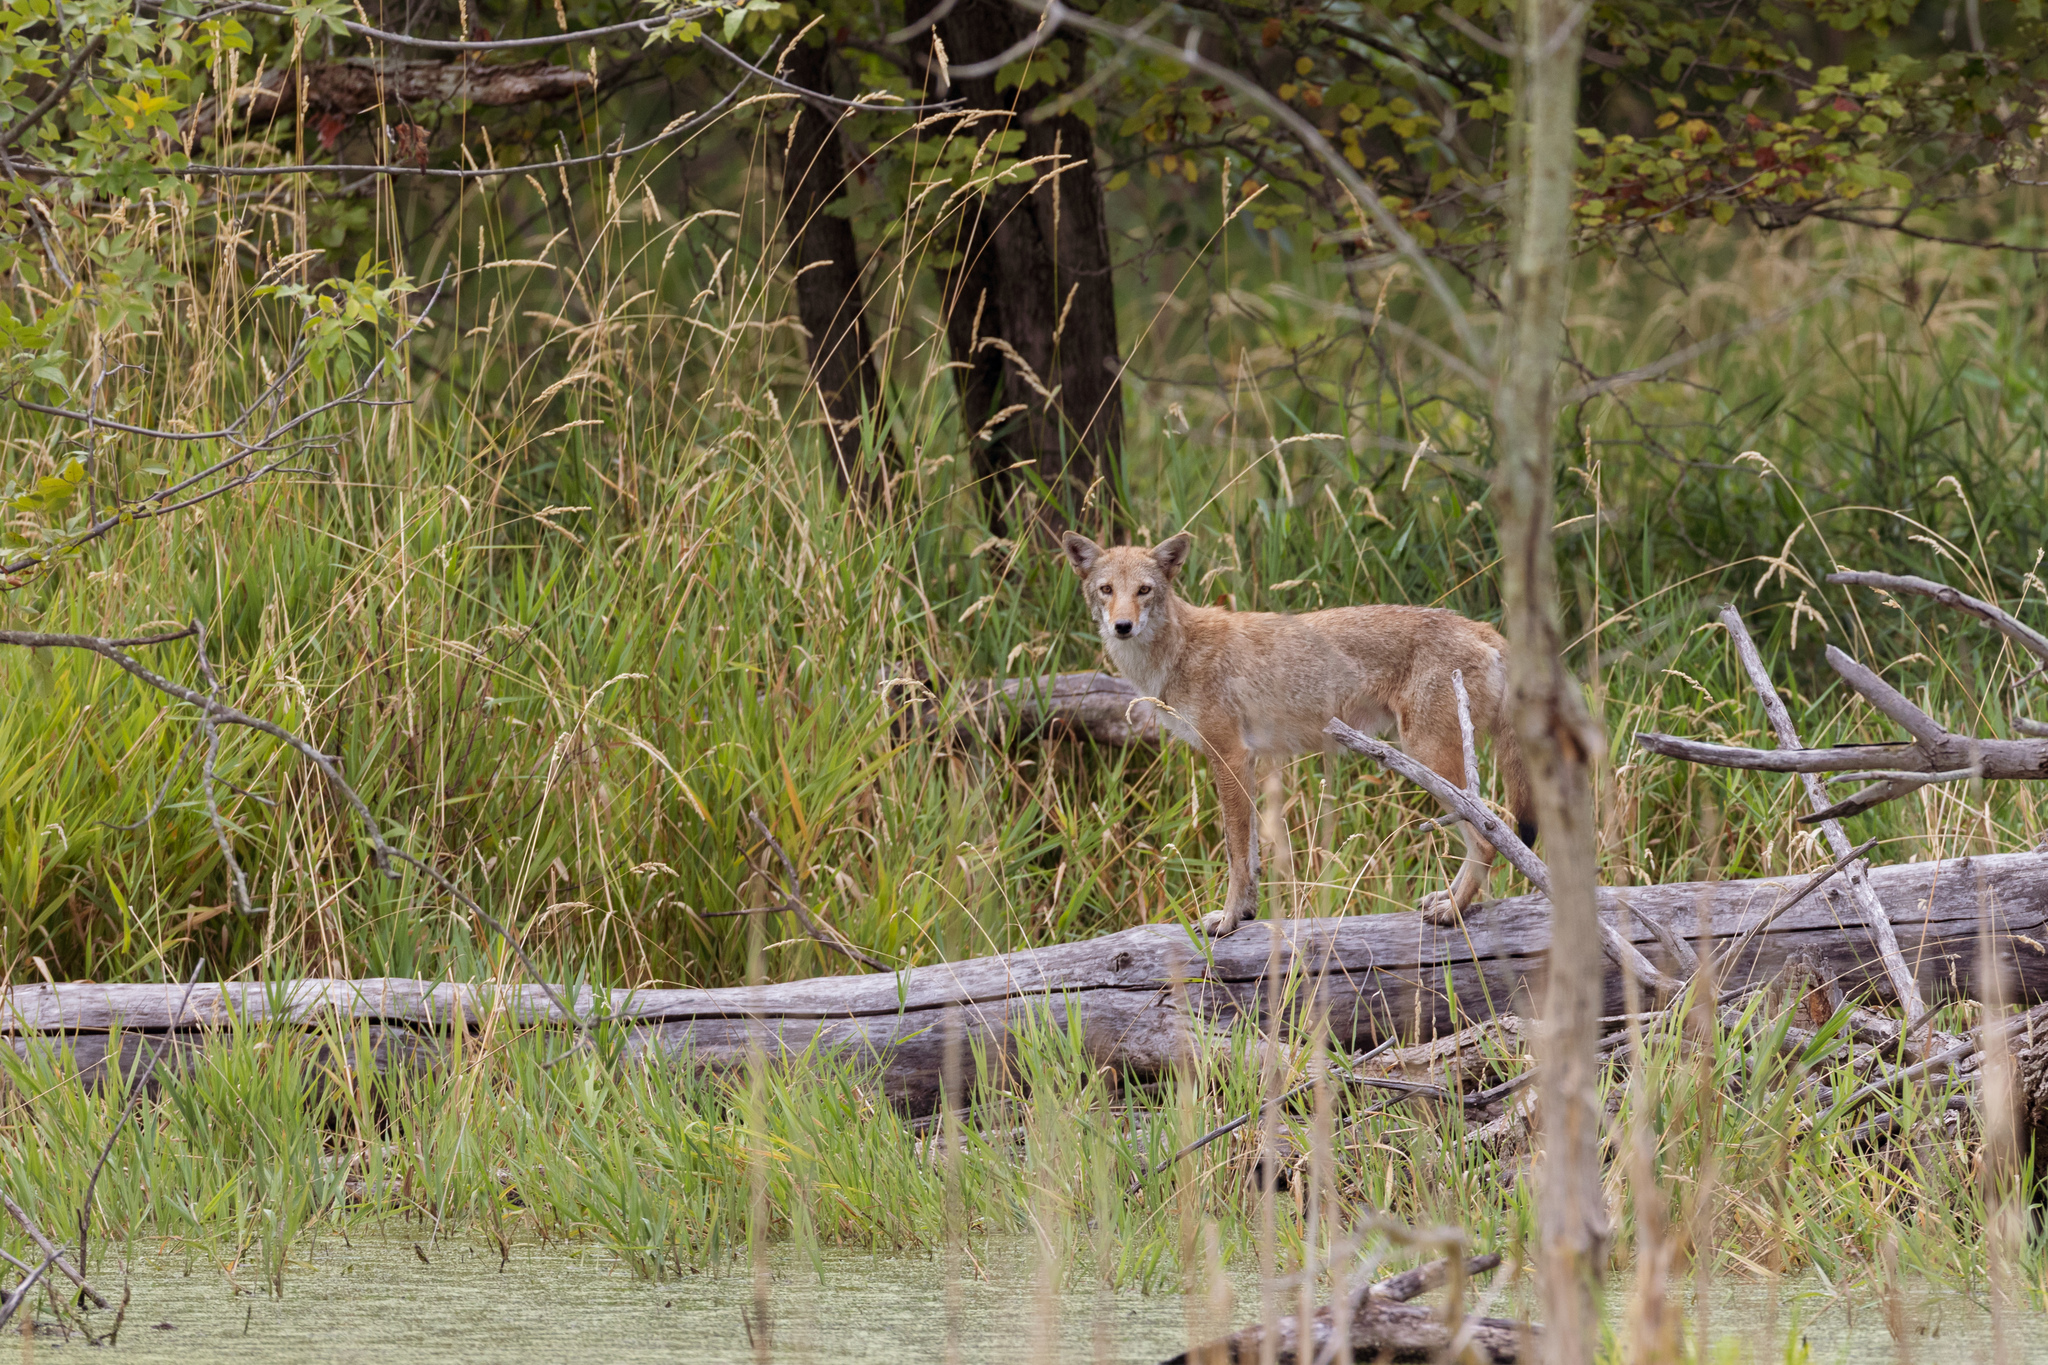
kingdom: Animalia
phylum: Chordata
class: Mammalia
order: Carnivora
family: Canidae
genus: Canis
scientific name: Canis latrans
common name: Coyote
